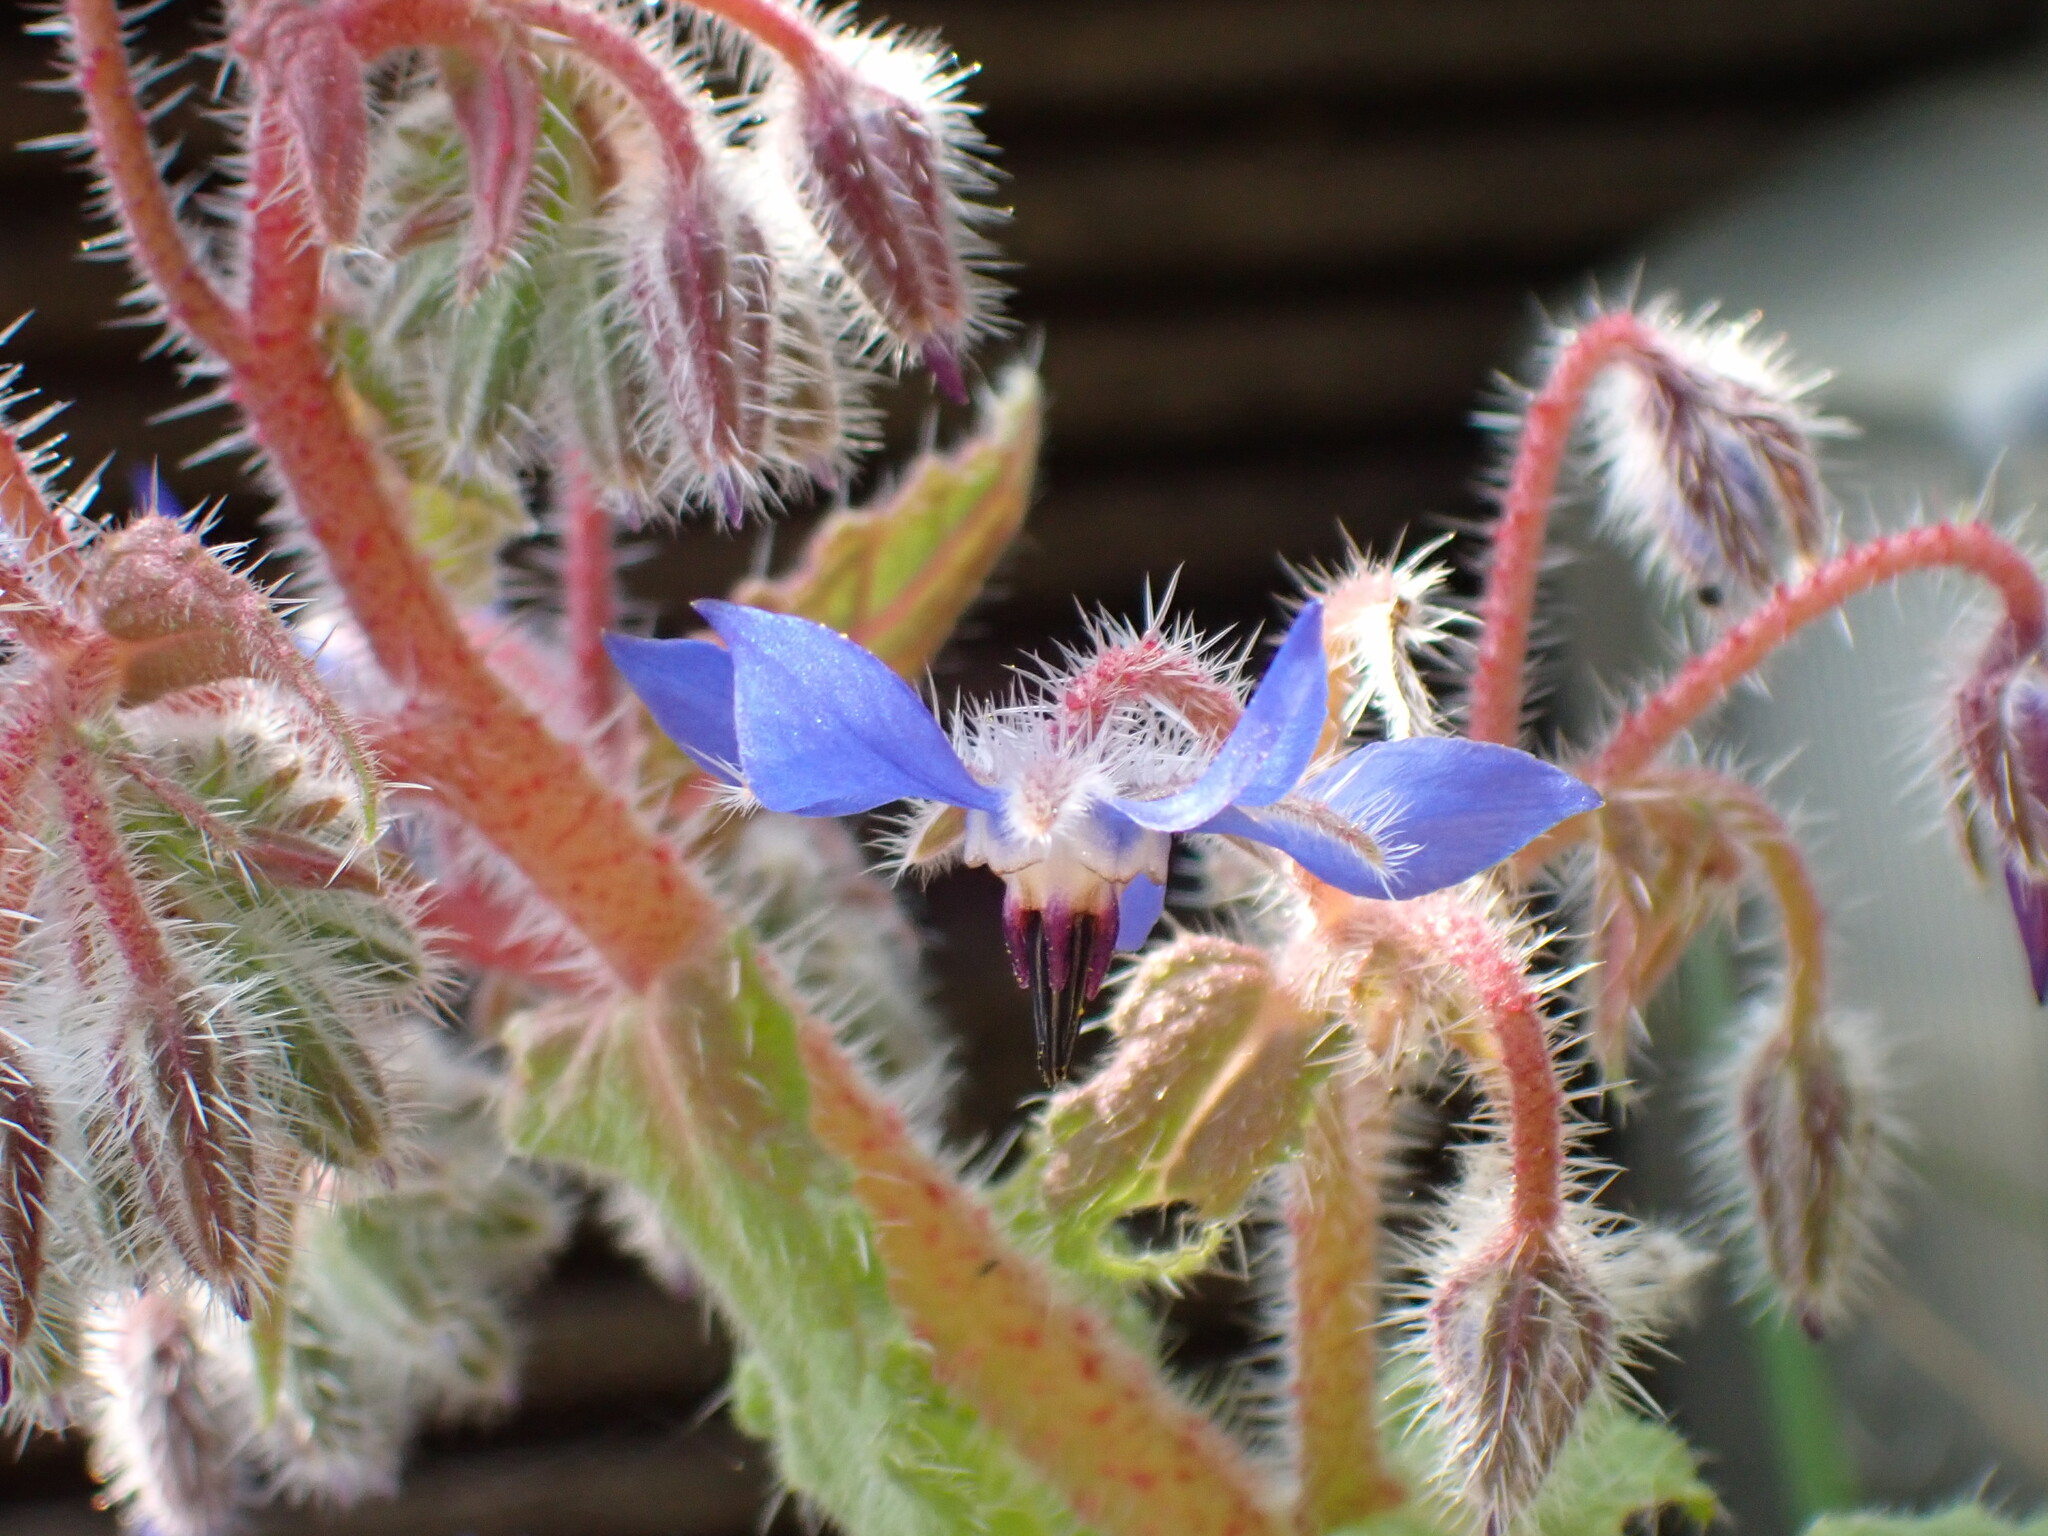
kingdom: Plantae
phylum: Tracheophyta
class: Magnoliopsida
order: Boraginales
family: Boraginaceae
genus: Borago
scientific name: Borago officinalis
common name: Borage
